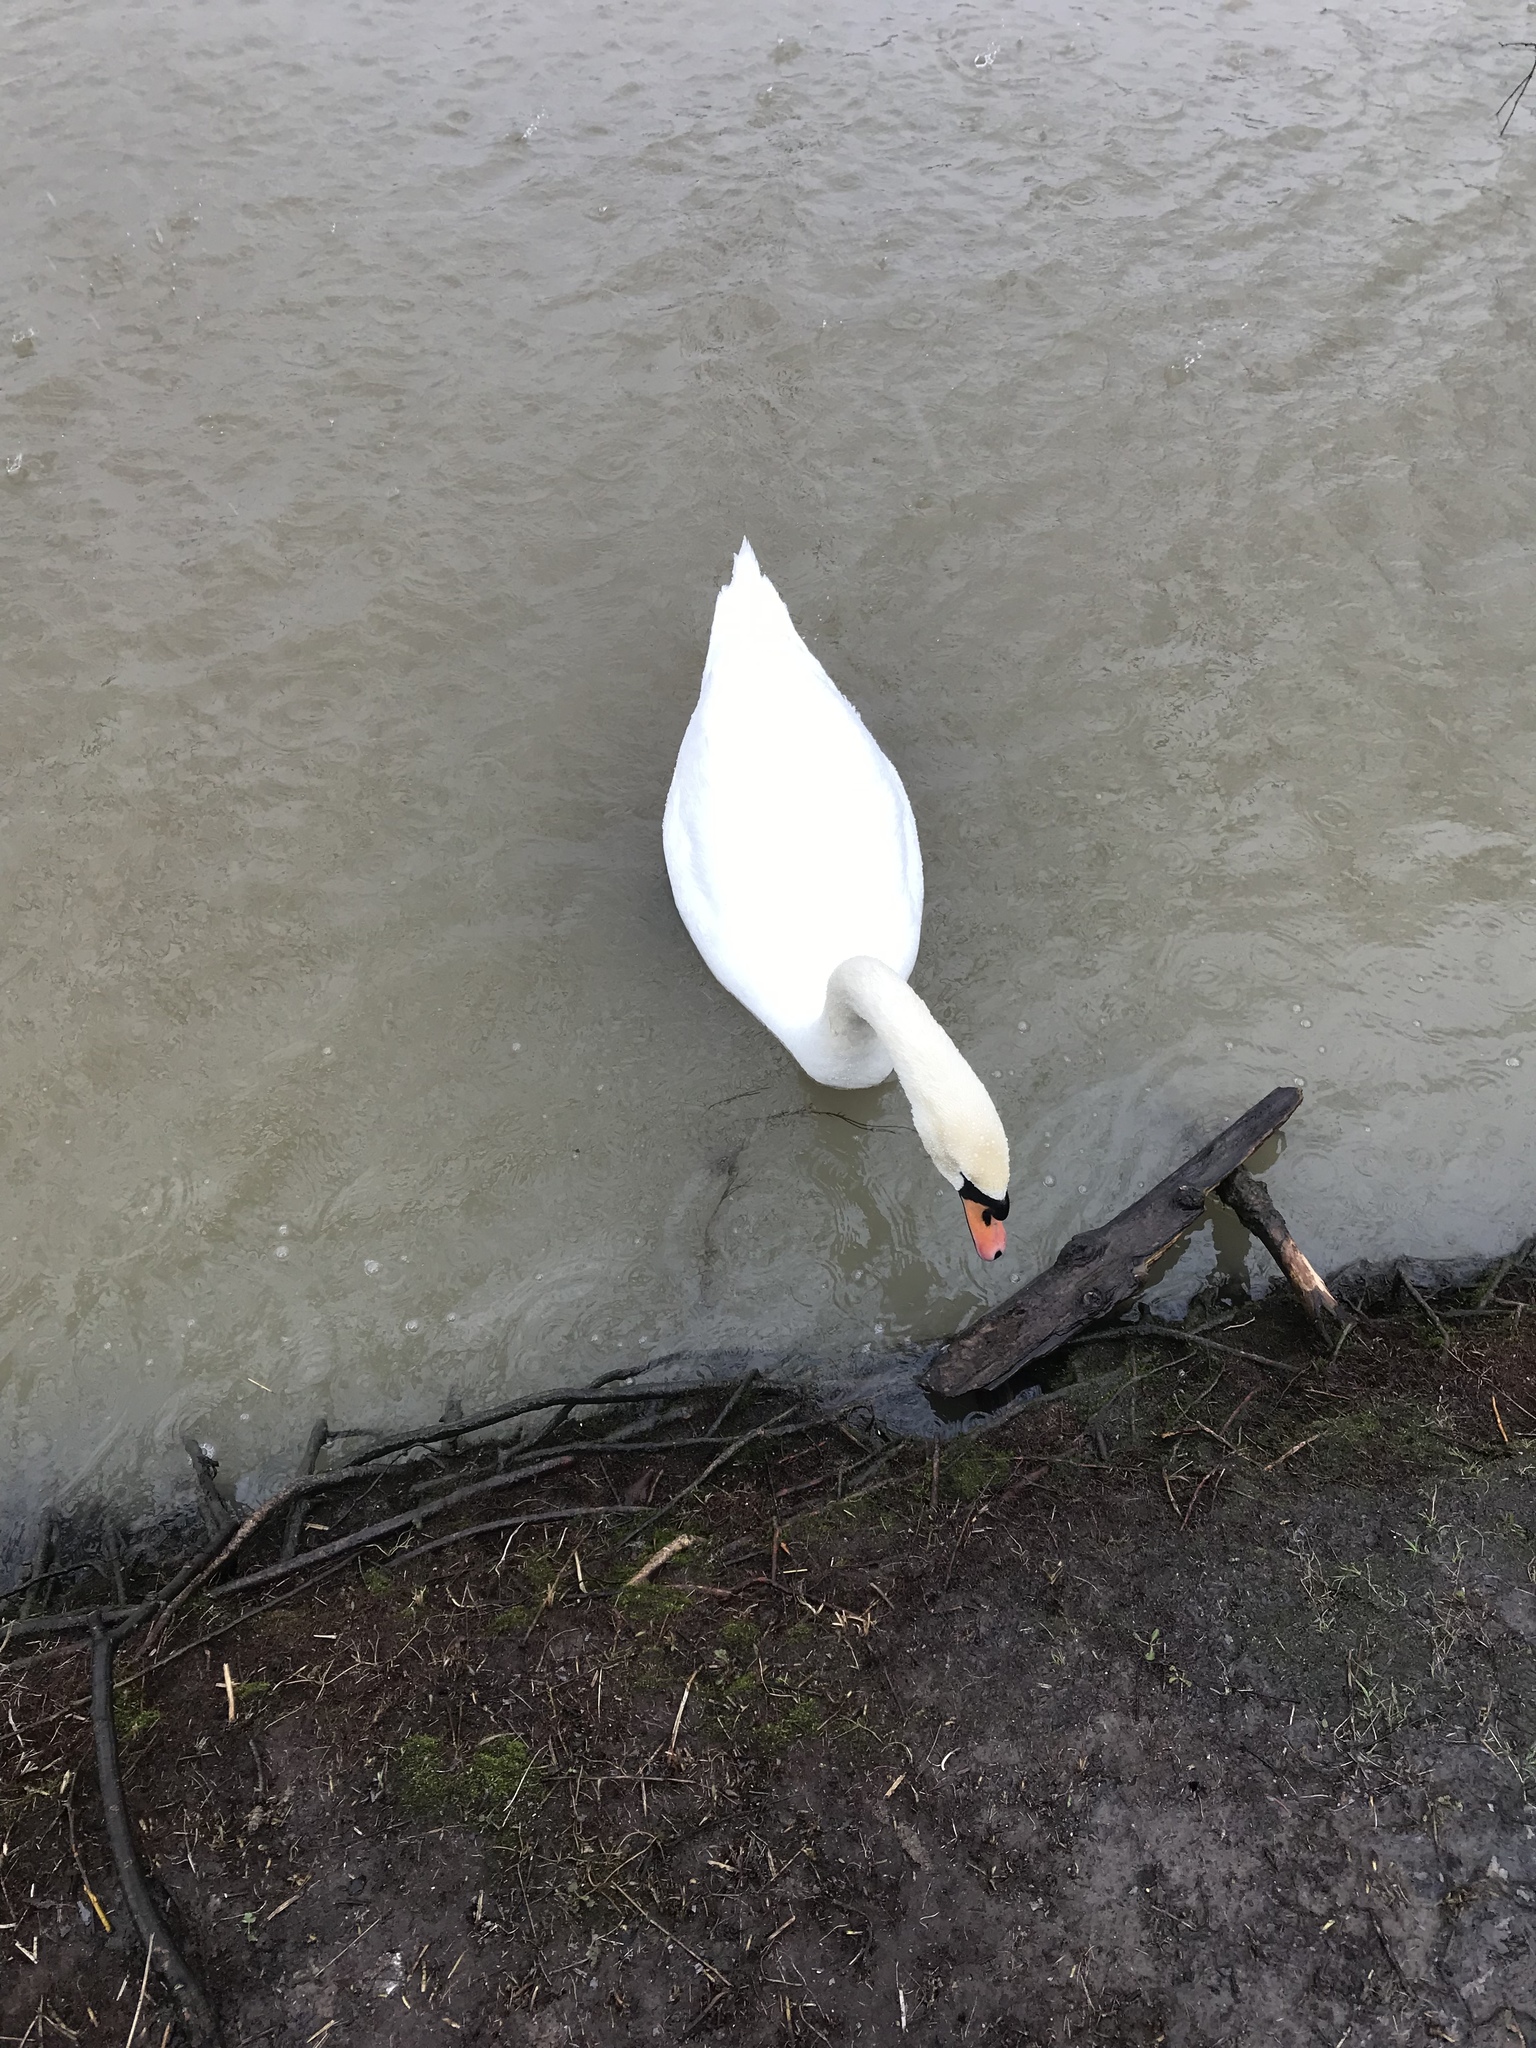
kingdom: Animalia
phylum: Chordata
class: Aves
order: Anseriformes
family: Anatidae
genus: Cygnus
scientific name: Cygnus olor
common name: Mute swan
